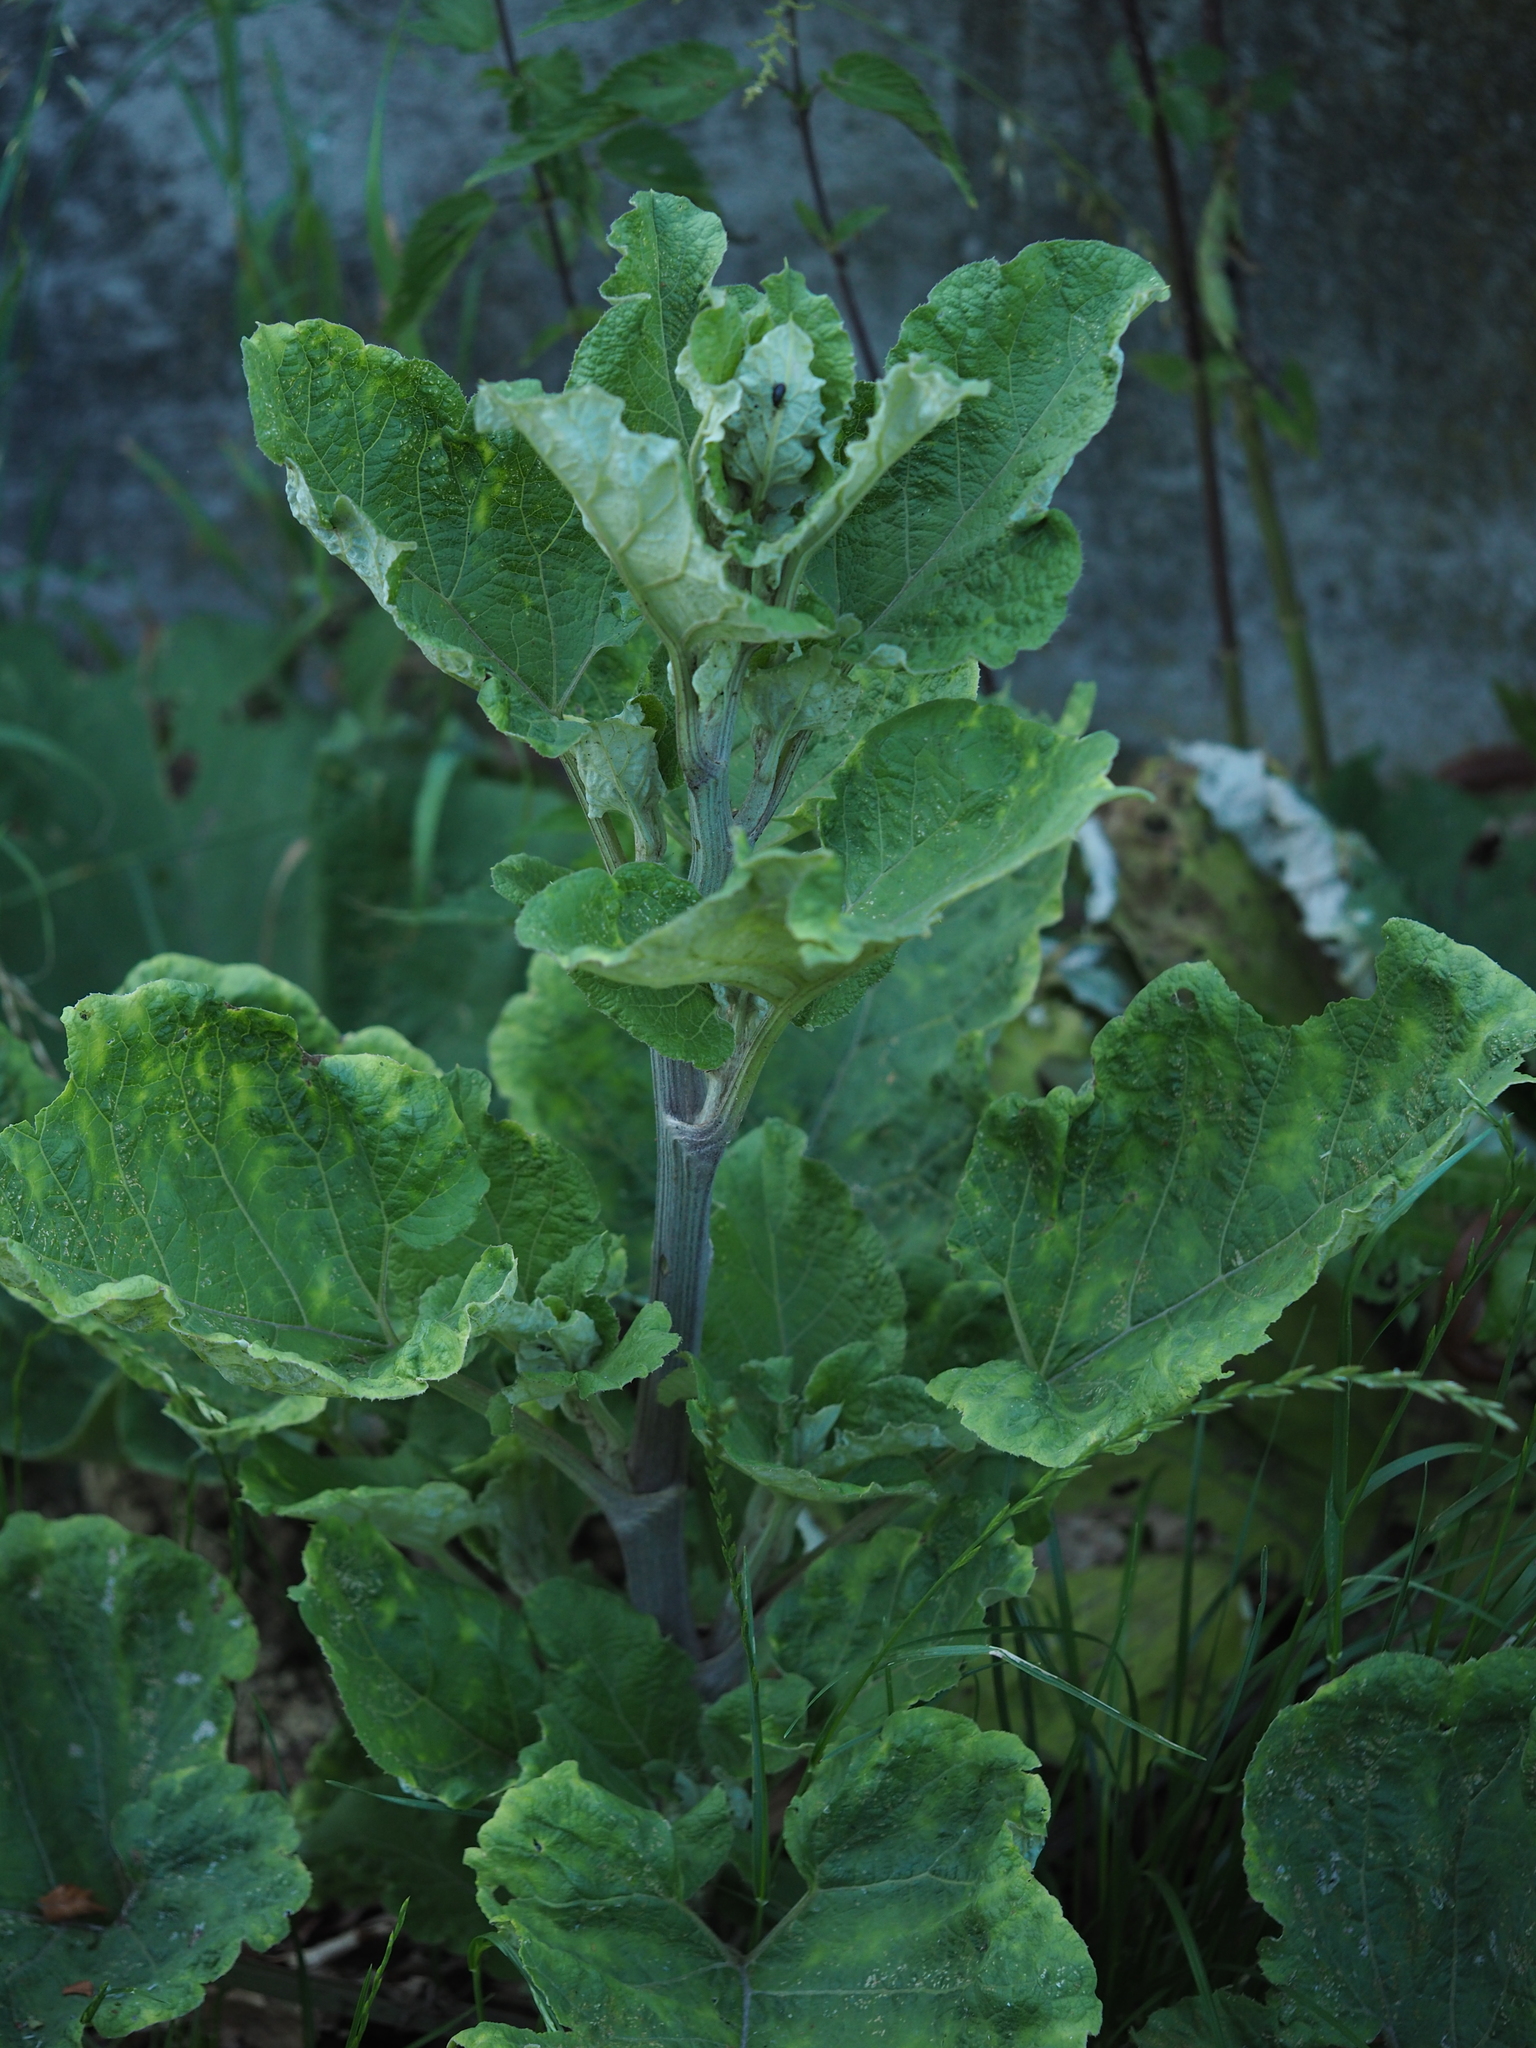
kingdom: Animalia
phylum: Arthropoda
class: Insecta
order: Coleoptera
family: Curculionidae
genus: Malvaevora
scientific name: Malvaevora timida
